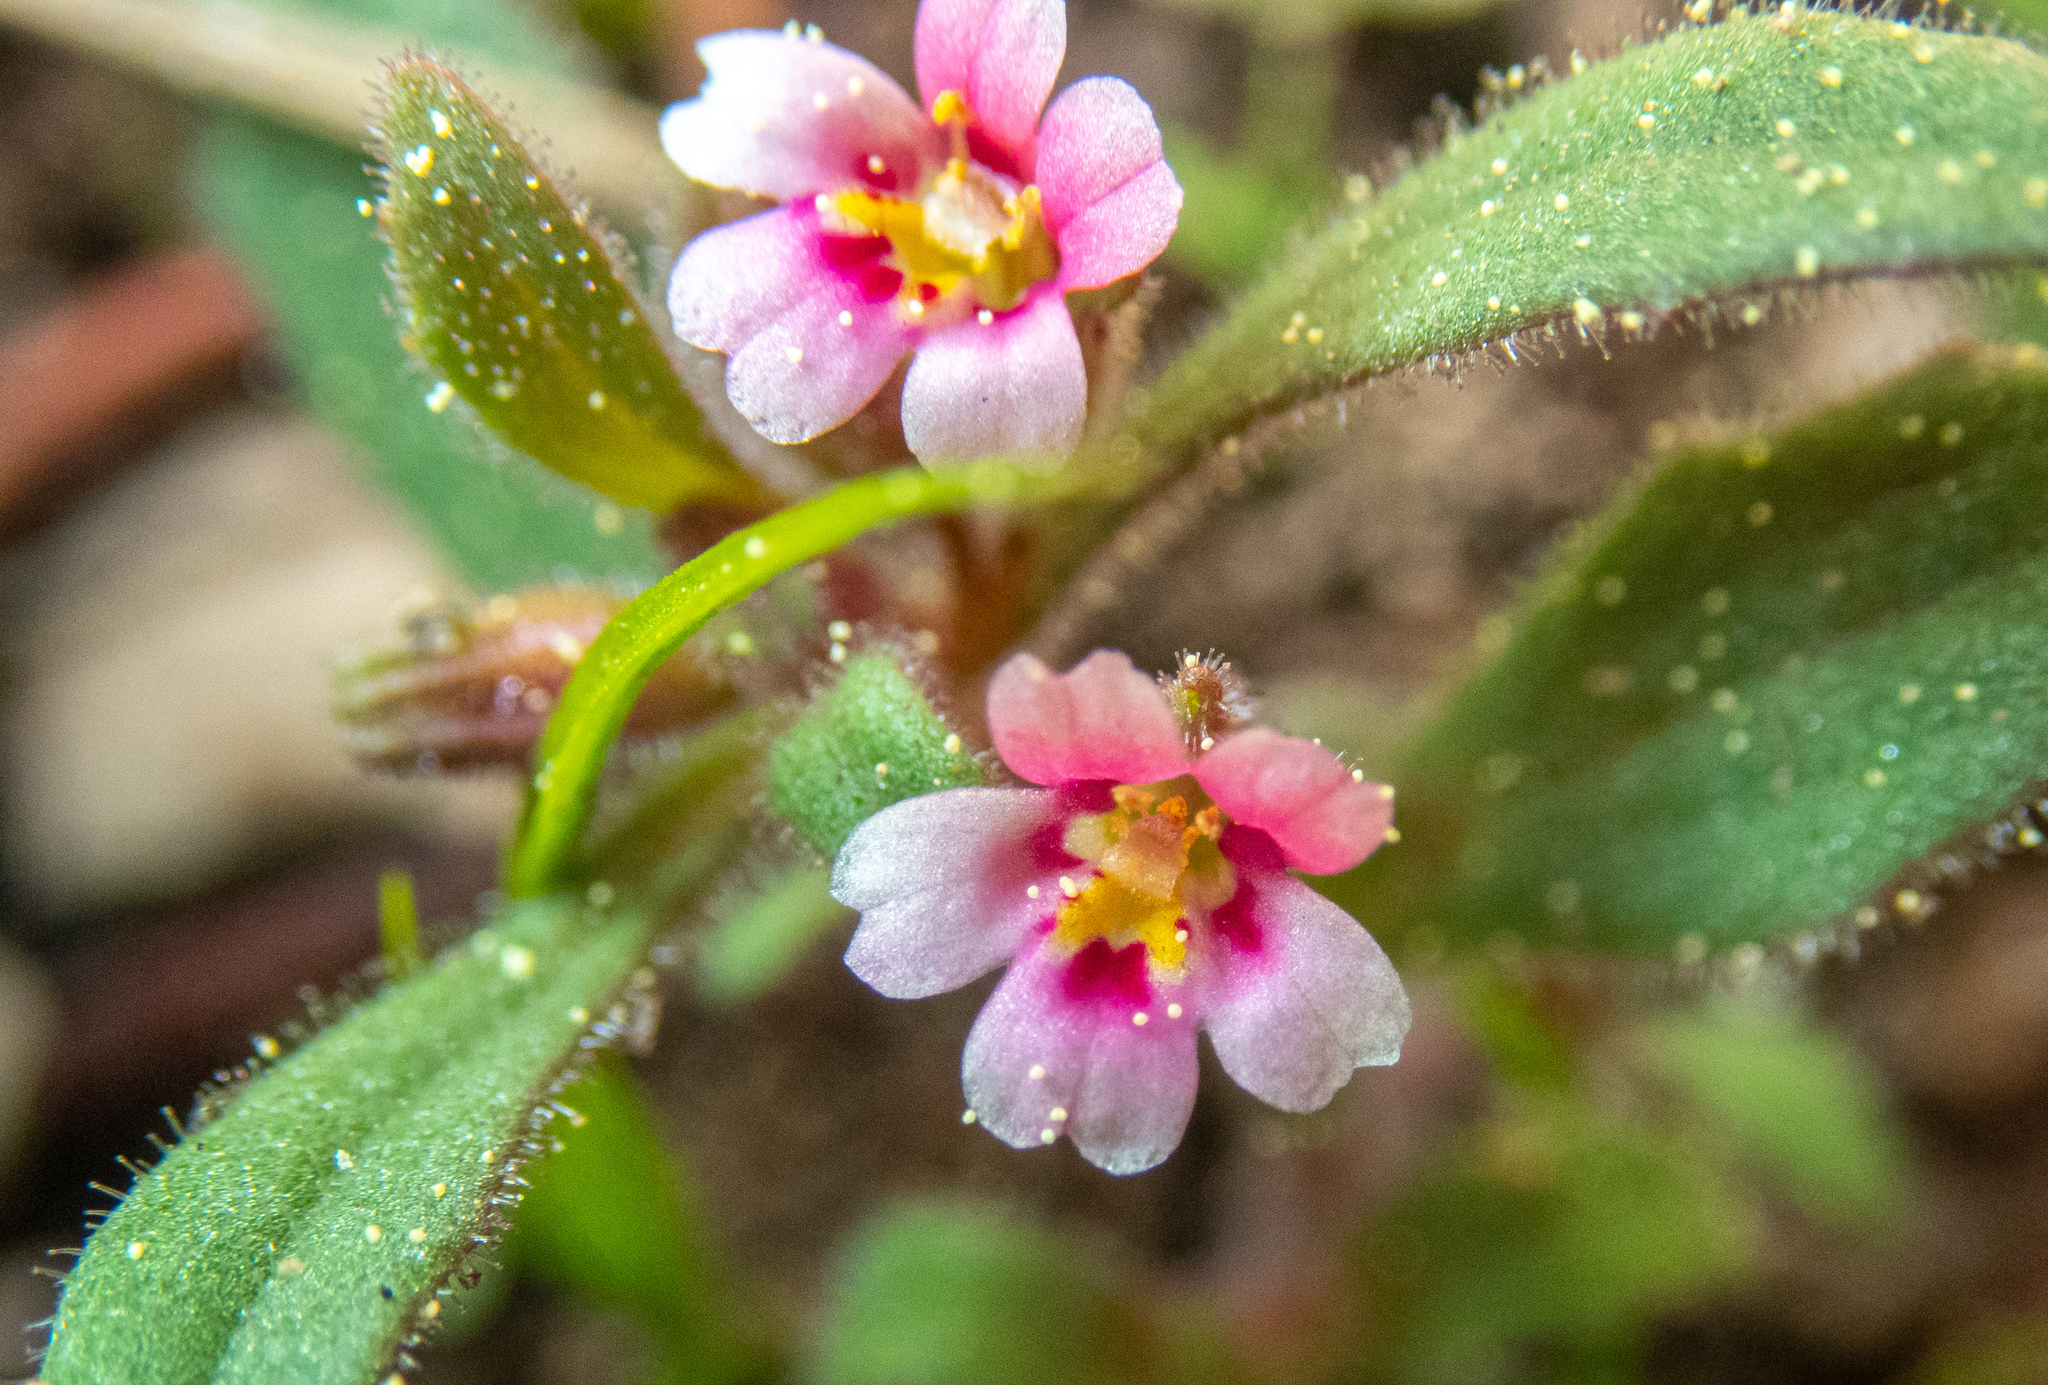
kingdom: Plantae
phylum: Tracheophyta
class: Magnoliopsida
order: Lamiales
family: Phrymaceae
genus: Erythranthe
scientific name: Erythranthe breweri
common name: Brewer's monkeyflower
